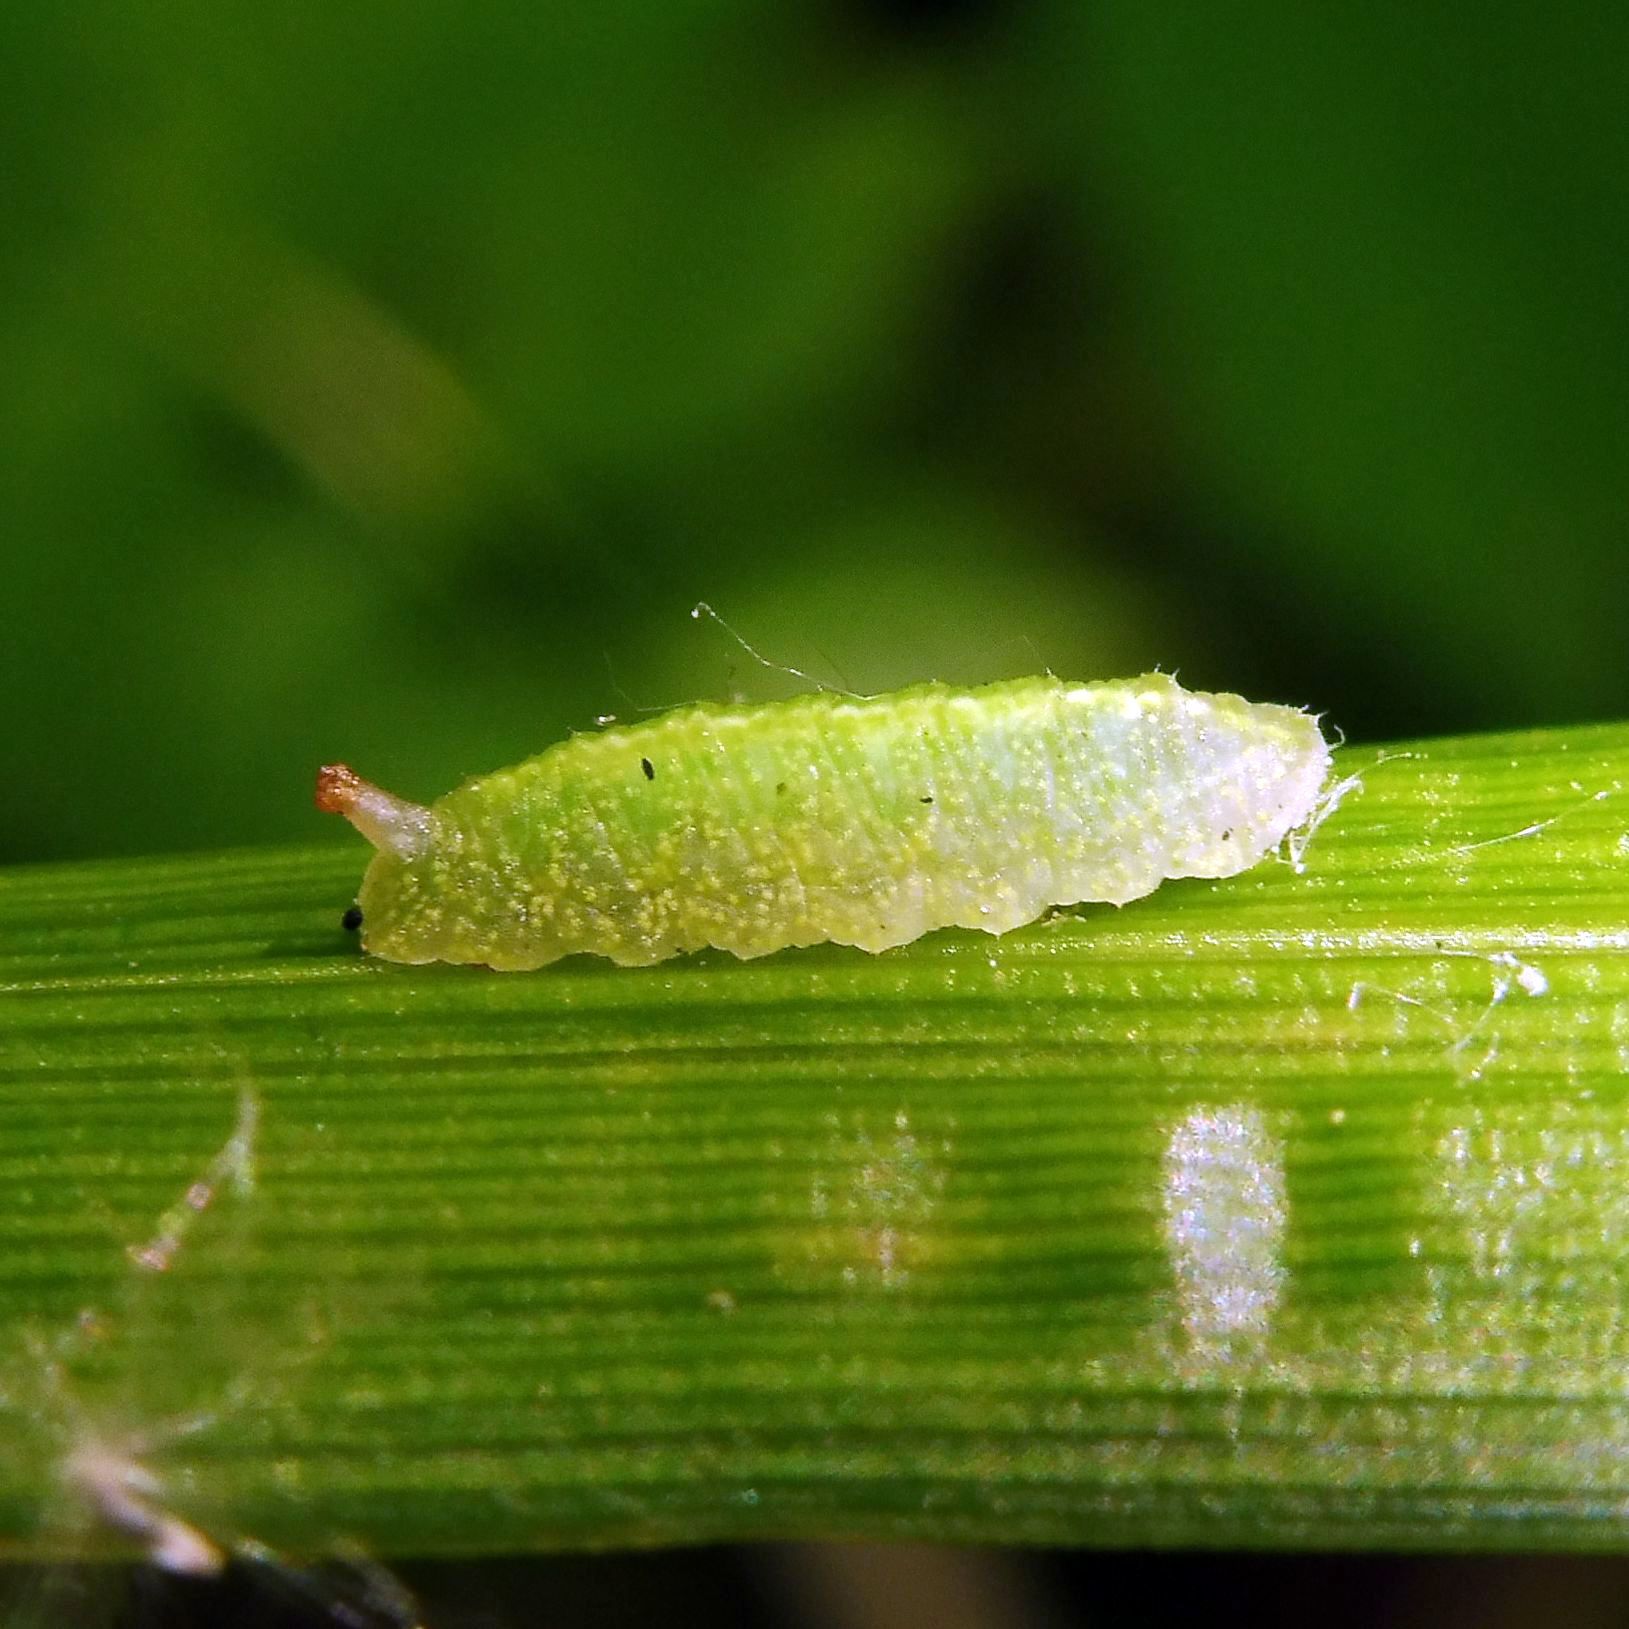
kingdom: Animalia
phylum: Arthropoda
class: Insecta
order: Diptera
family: Syrphidae
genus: Epistrophe
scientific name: Epistrophe eligans
